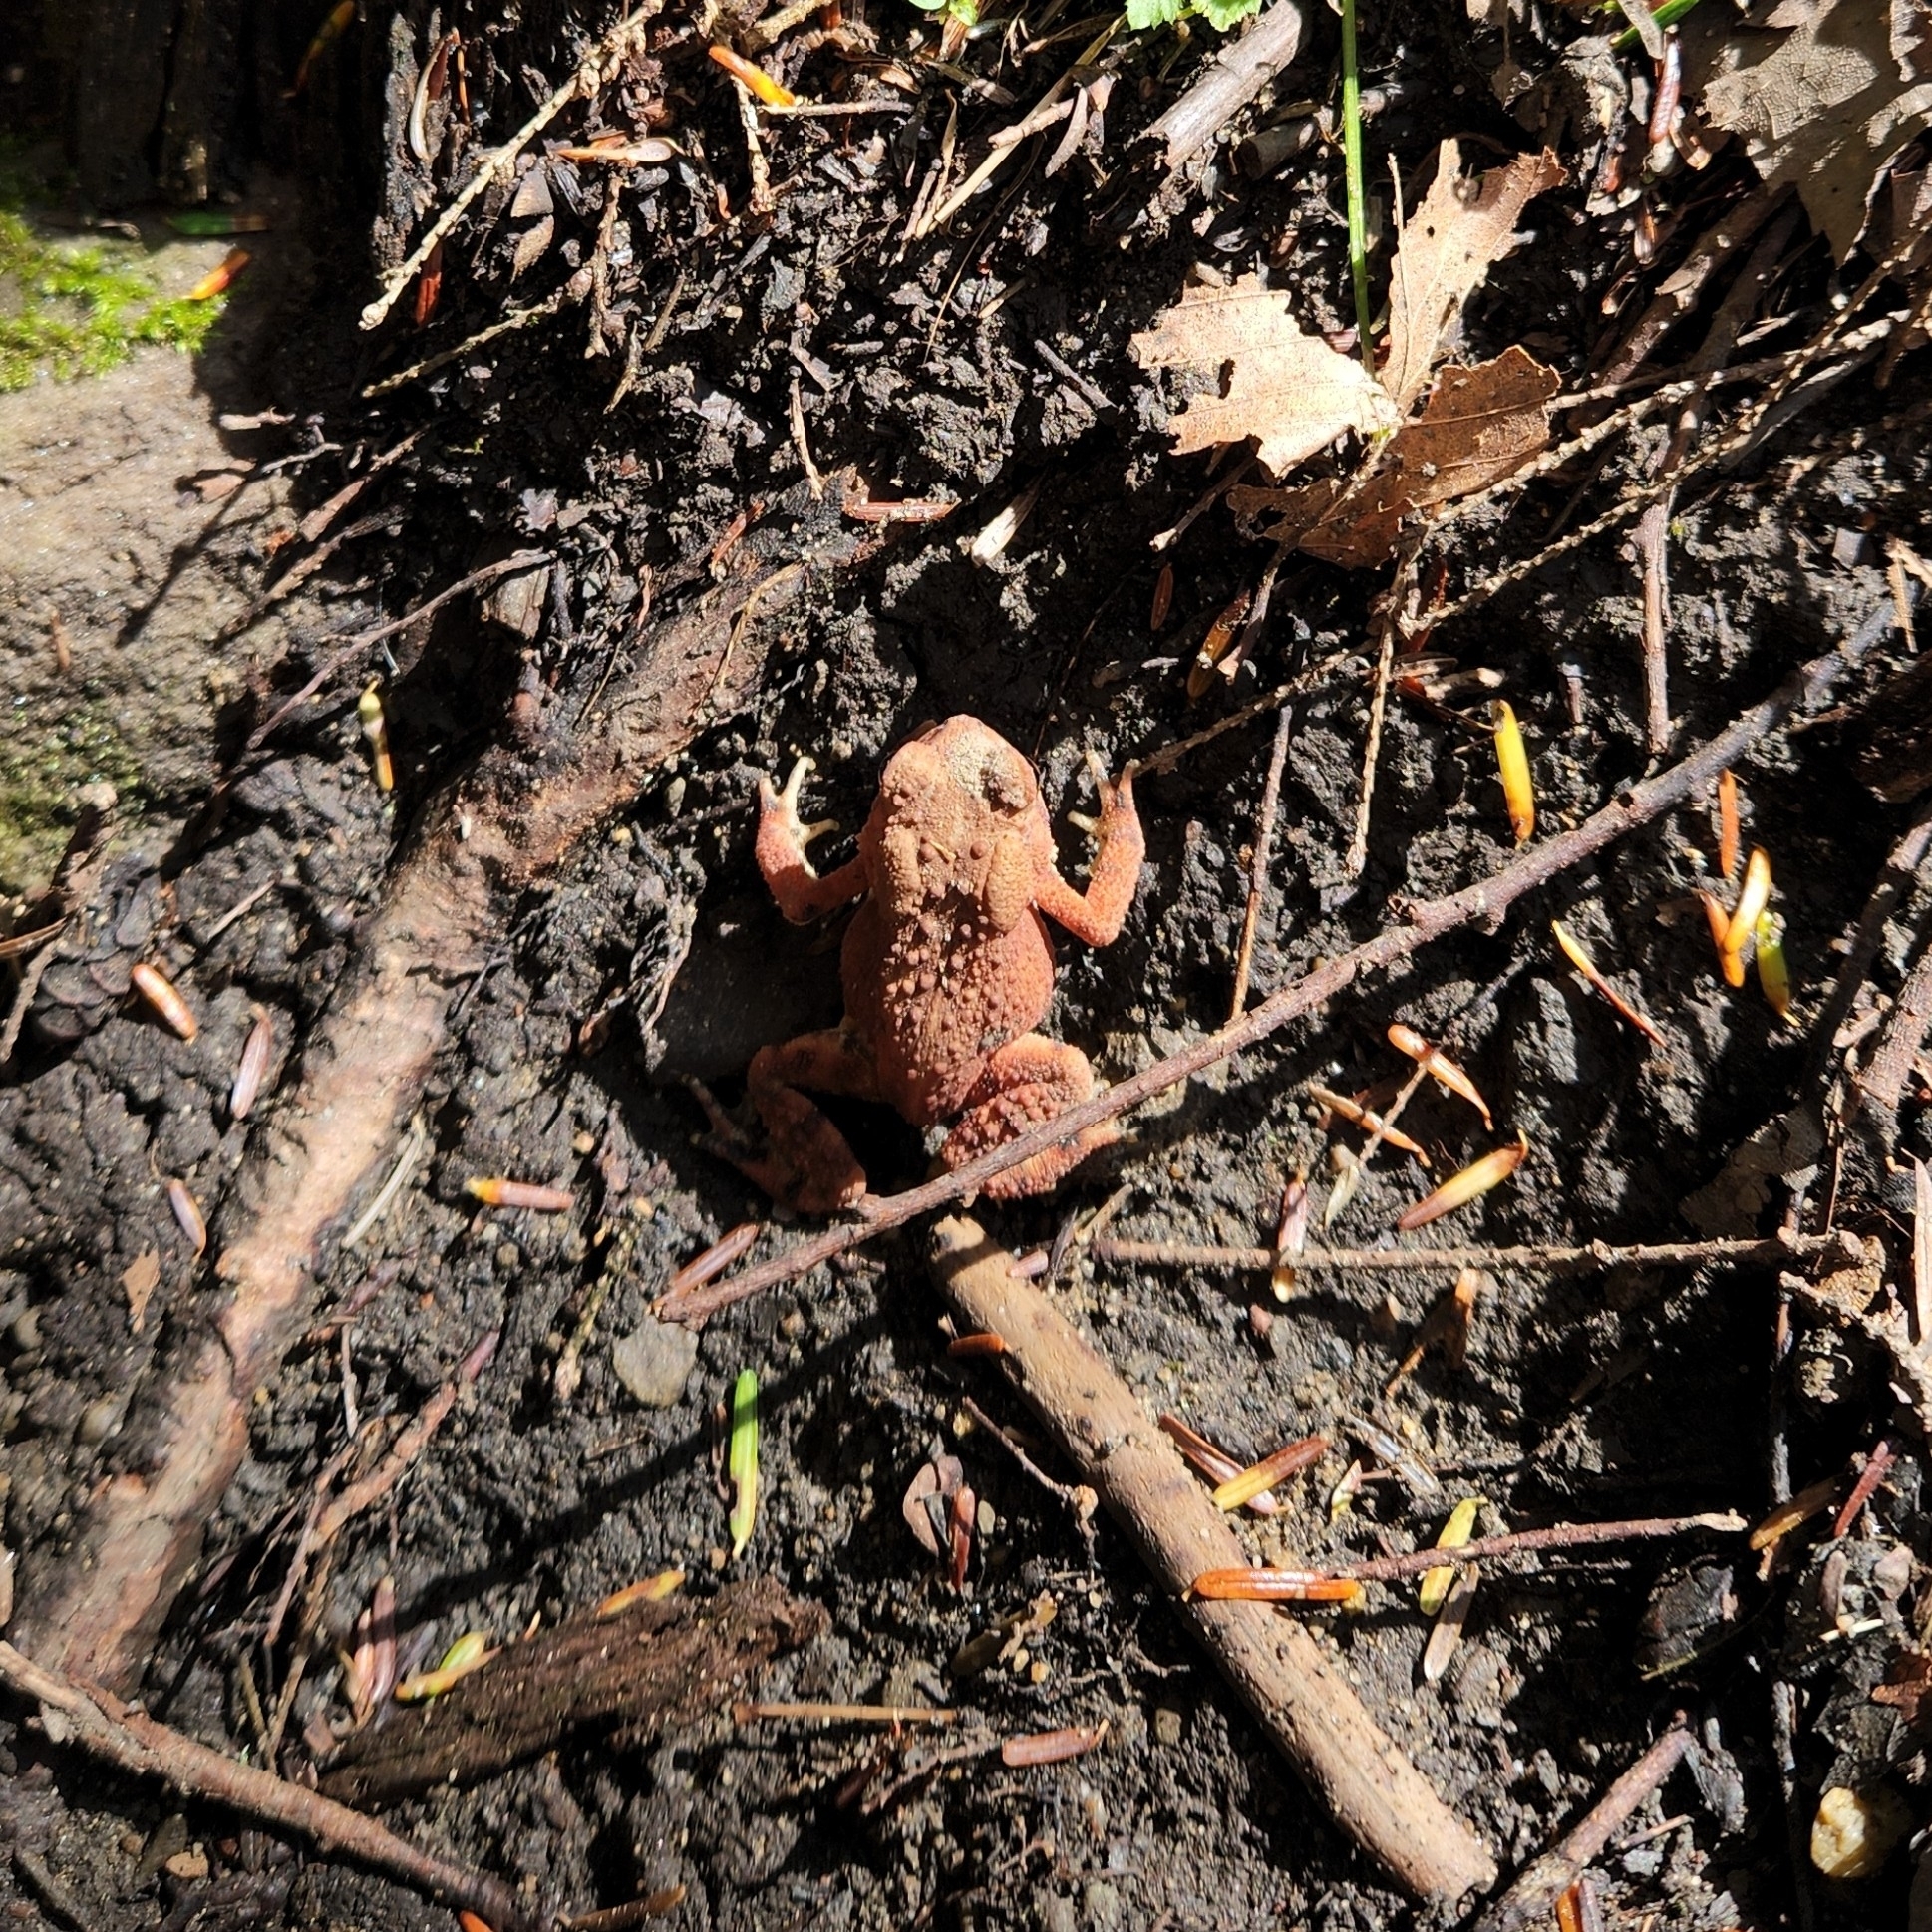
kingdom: Animalia
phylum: Chordata
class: Amphibia
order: Anura
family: Bufonidae
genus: Anaxyrus
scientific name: Anaxyrus americanus
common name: American toad
